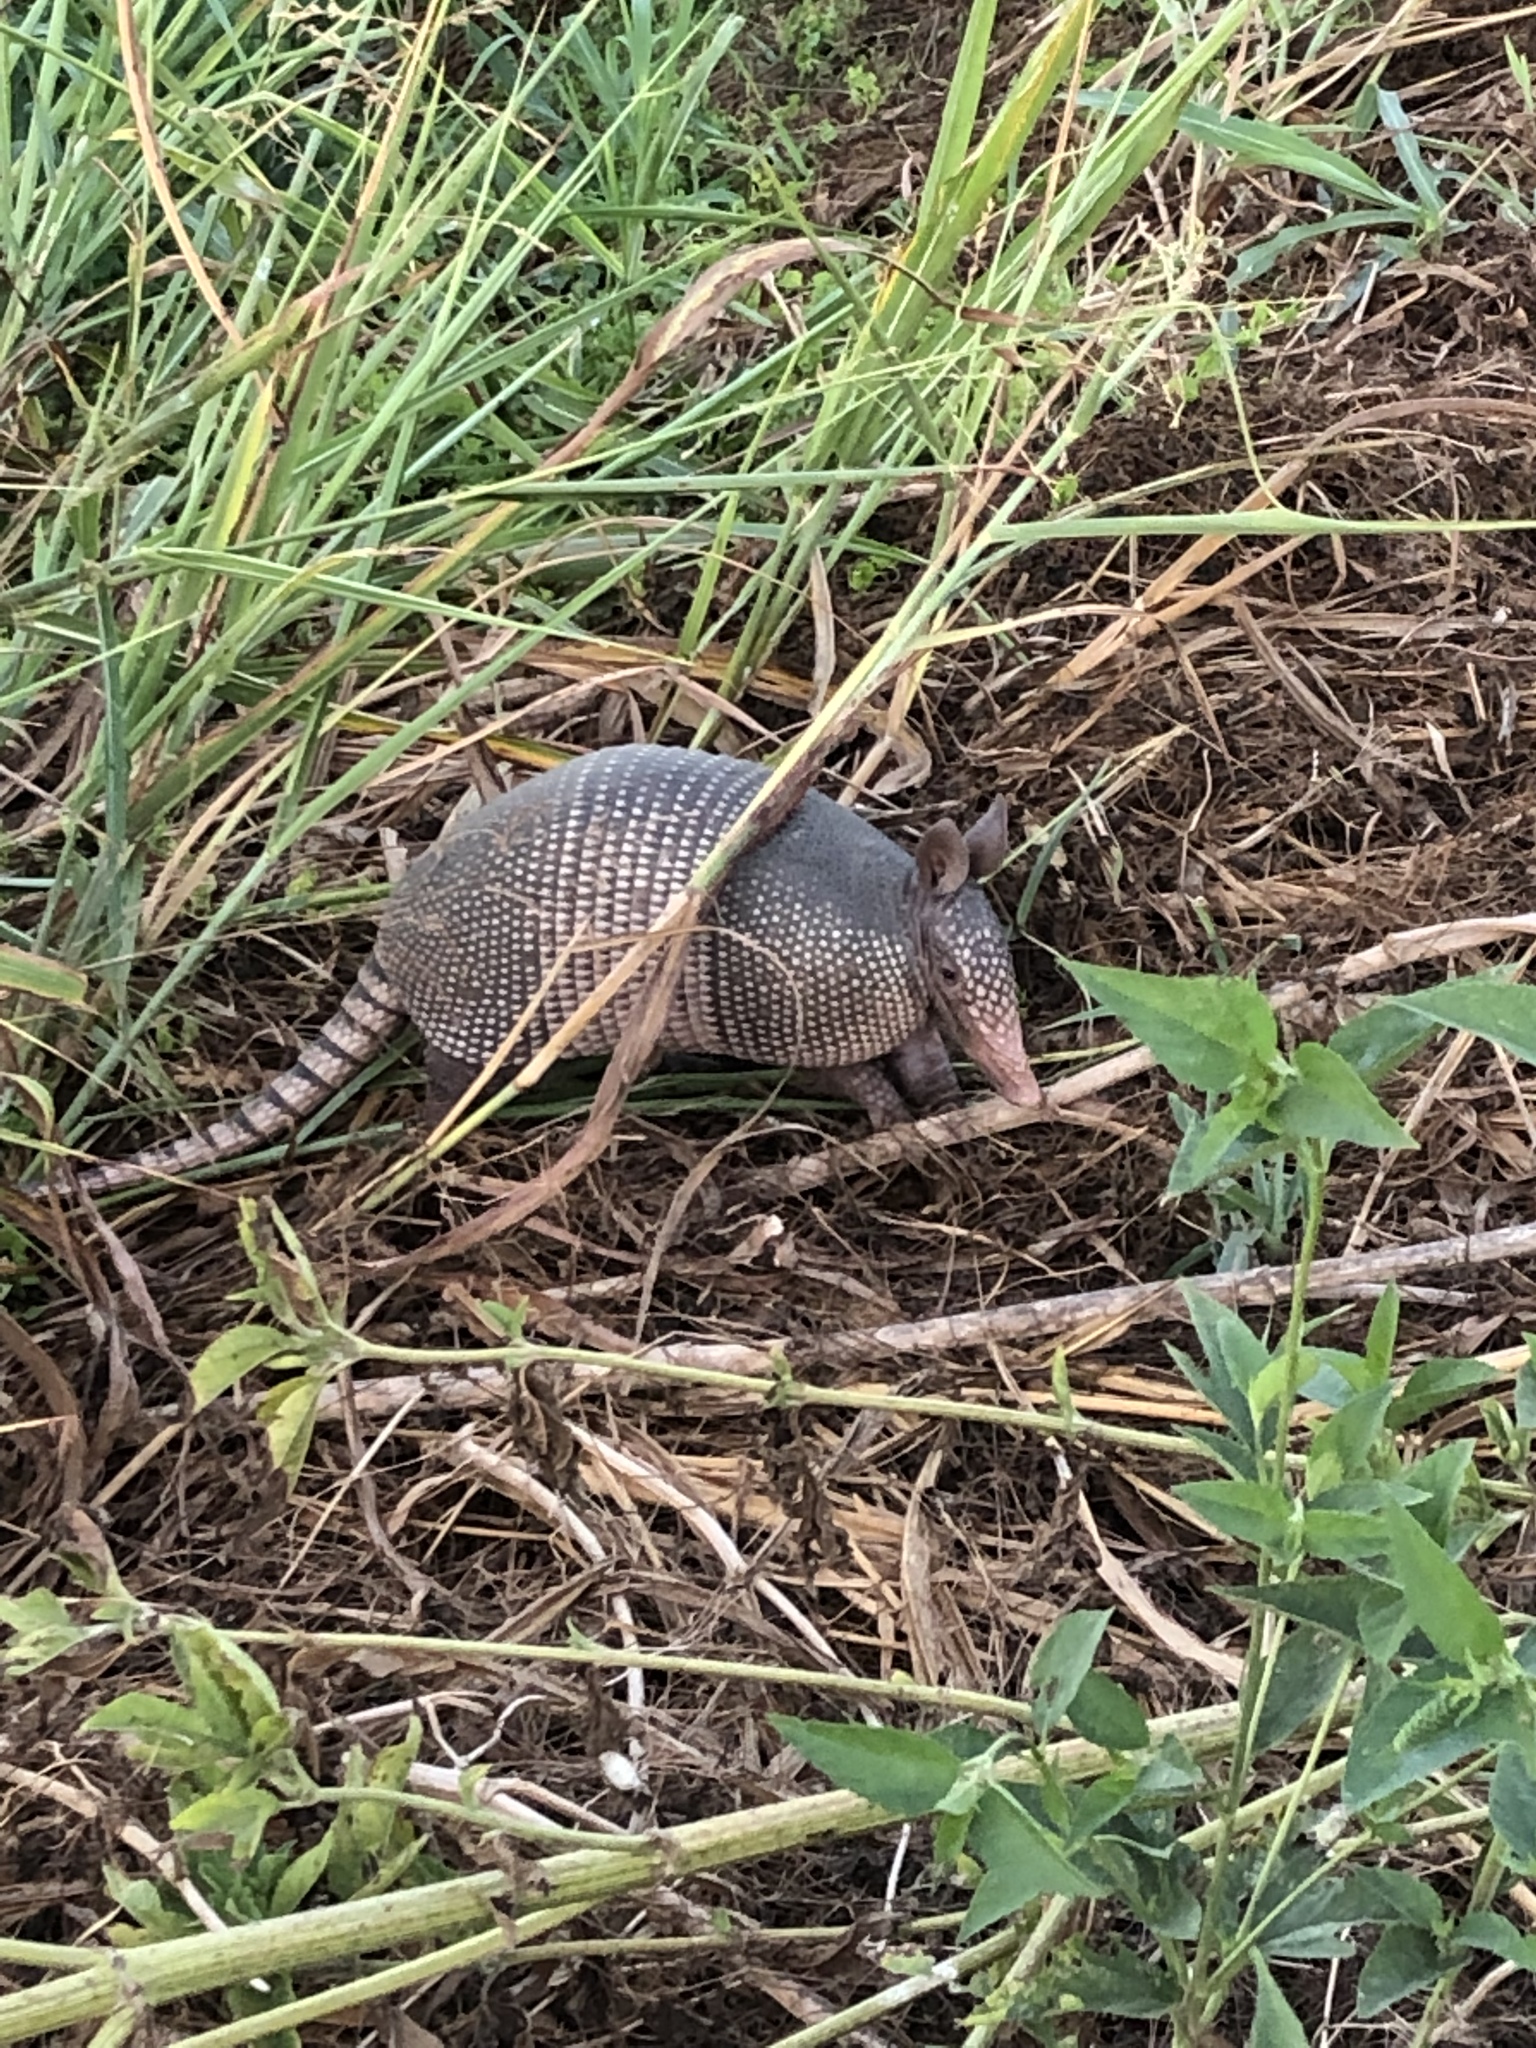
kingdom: Animalia
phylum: Chordata
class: Mammalia
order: Cingulata
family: Dasypodidae
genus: Dasypus
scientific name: Dasypus novemcinctus
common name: Nine-banded armadillo
